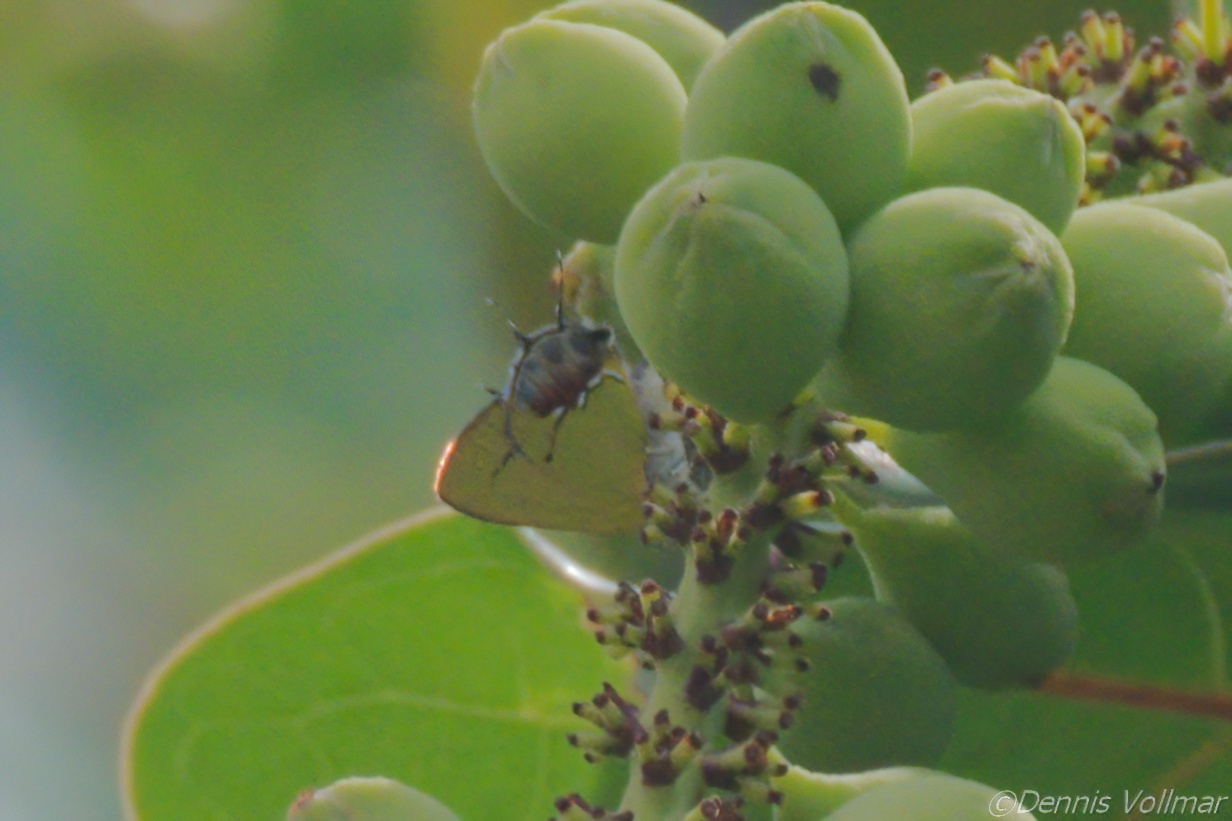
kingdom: Animalia
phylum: Arthropoda
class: Insecta
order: Lepidoptera
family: Lycaenidae
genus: Thecla
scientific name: Thecla maesites
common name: Verde azul hairstreak
